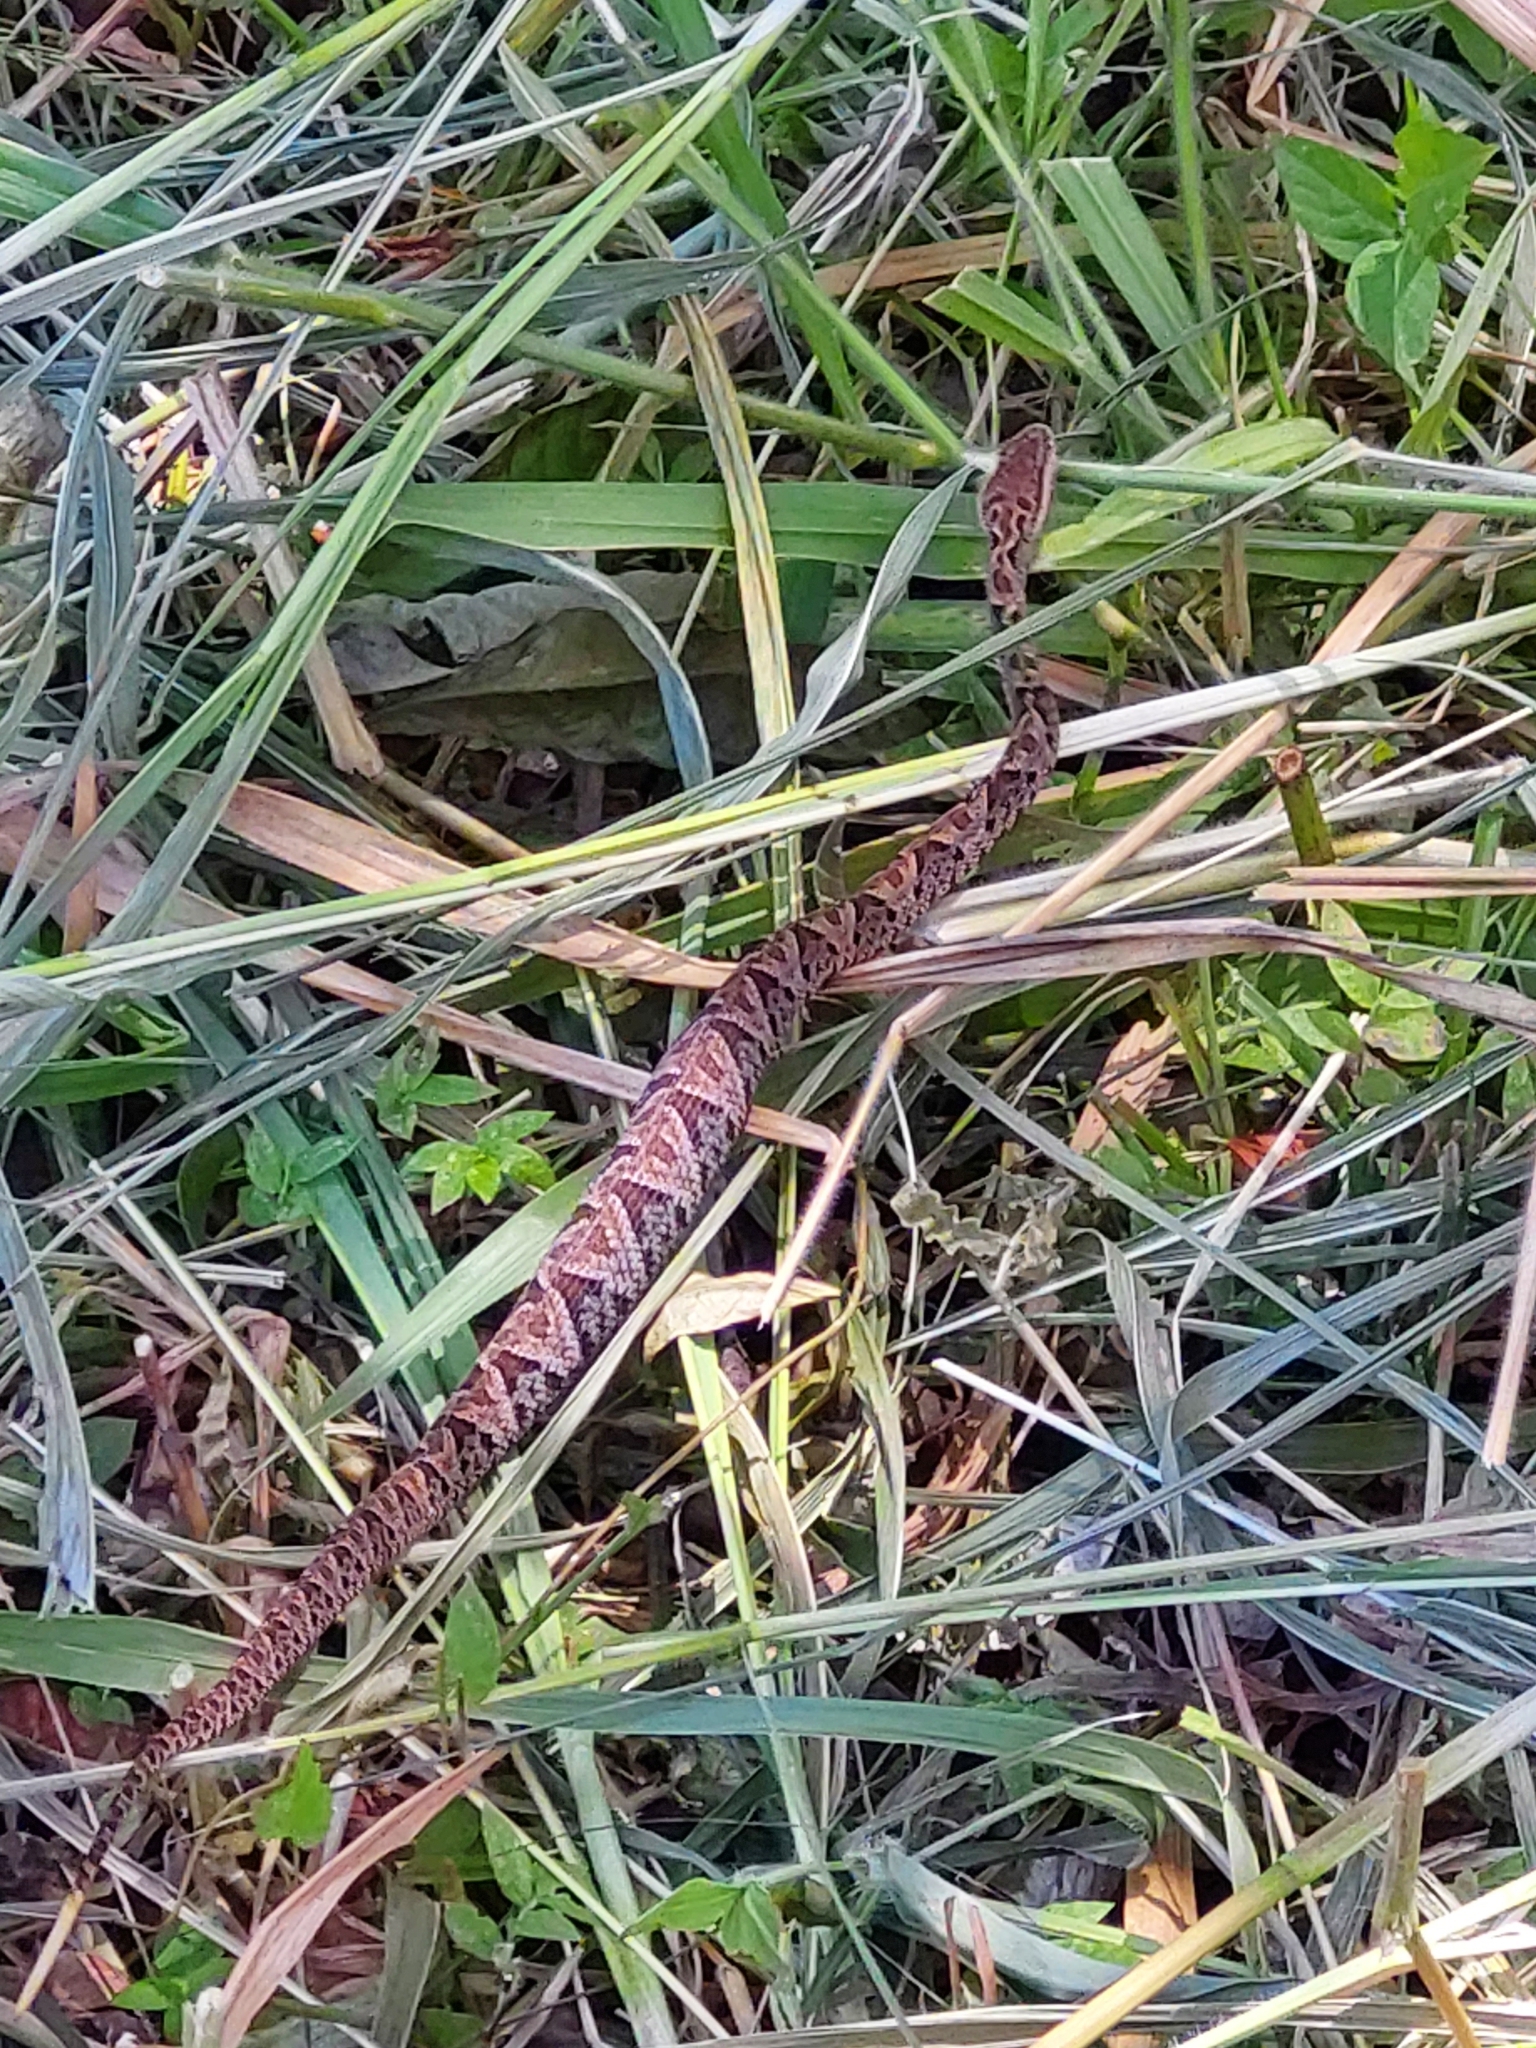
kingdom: Animalia
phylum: Chordata
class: Squamata
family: Viperidae
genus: Bothrops
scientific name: Bothrops asper
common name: Terciopelo
